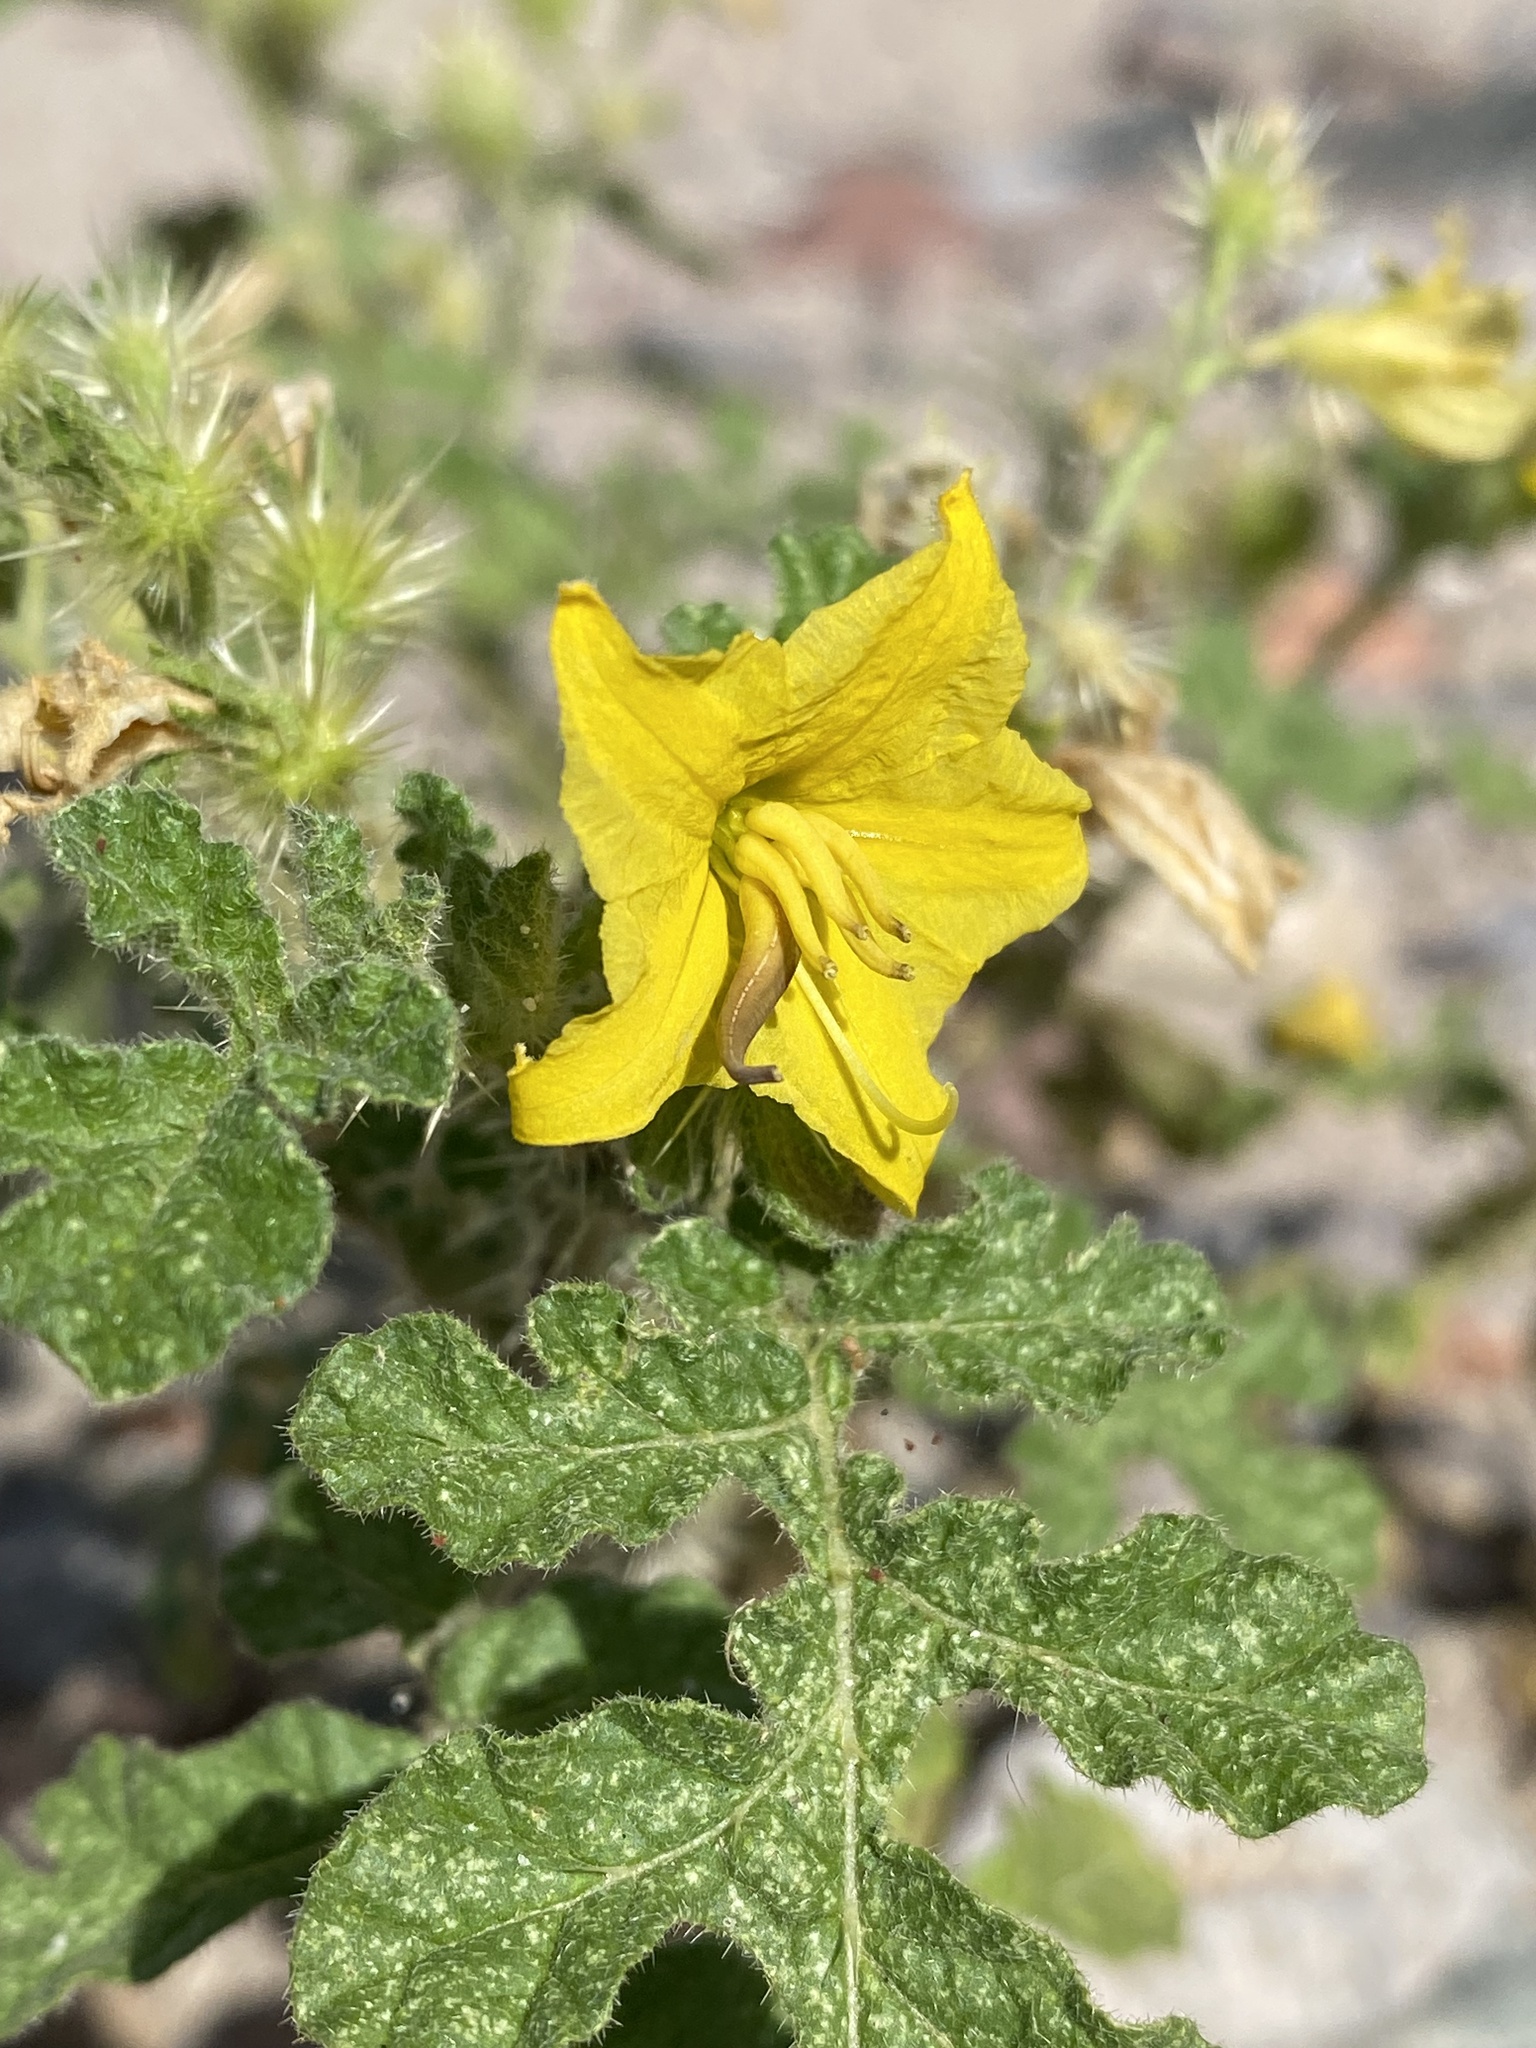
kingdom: Plantae
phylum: Tracheophyta
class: Magnoliopsida
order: Solanales
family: Solanaceae
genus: Solanum
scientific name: Solanum angustifolium
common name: Buffalobur nightshade
